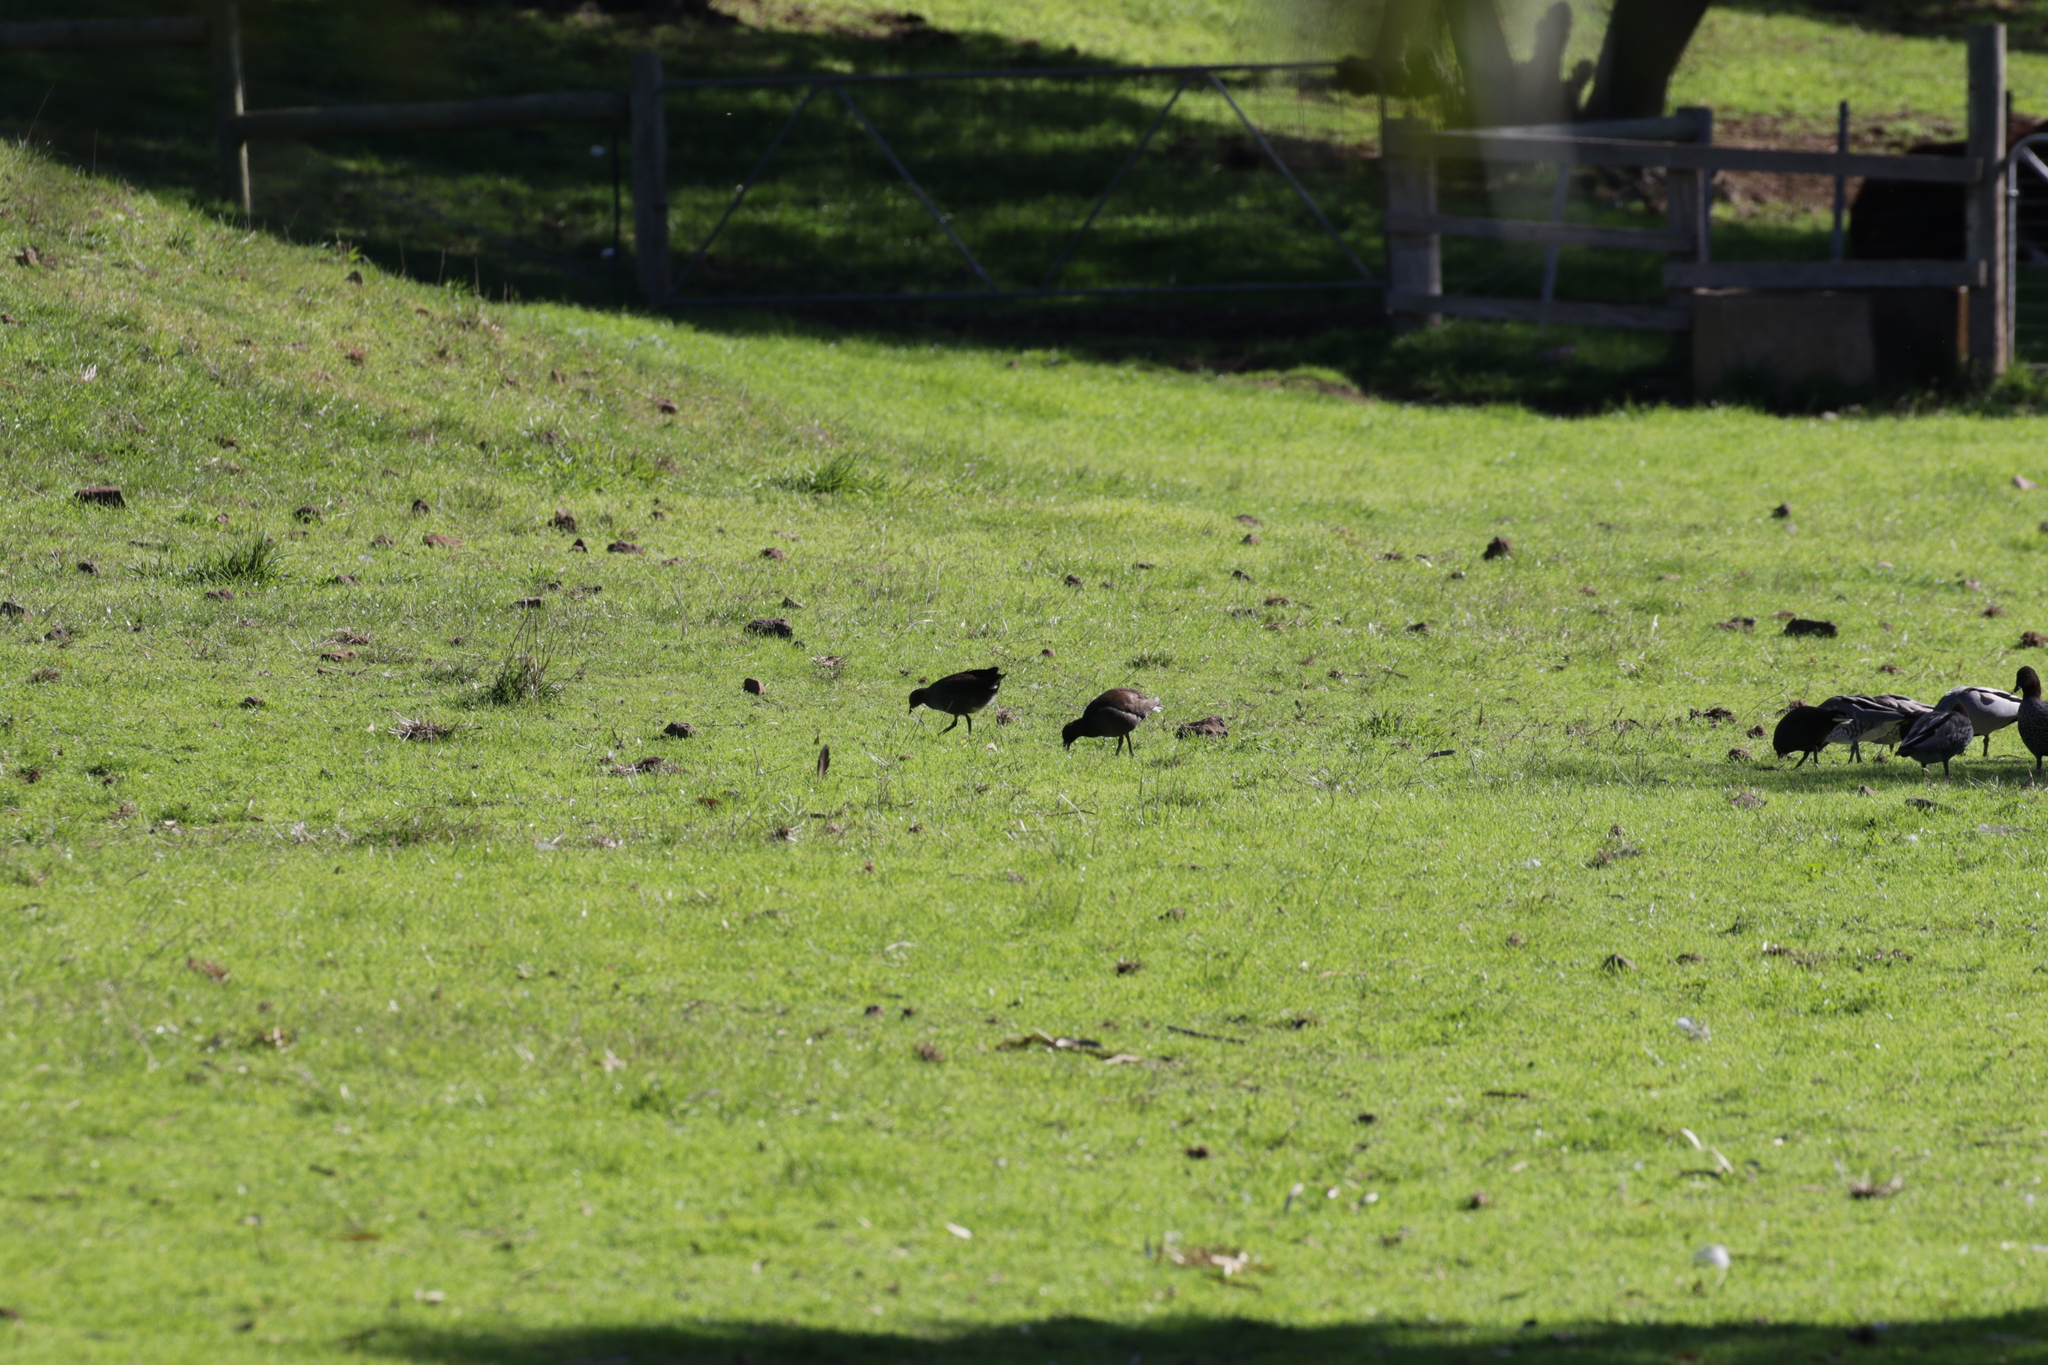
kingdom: Animalia
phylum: Chordata
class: Aves
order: Gruiformes
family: Rallidae
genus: Gallinula
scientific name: Gallinula tenebrosa
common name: Dusky moorhen
